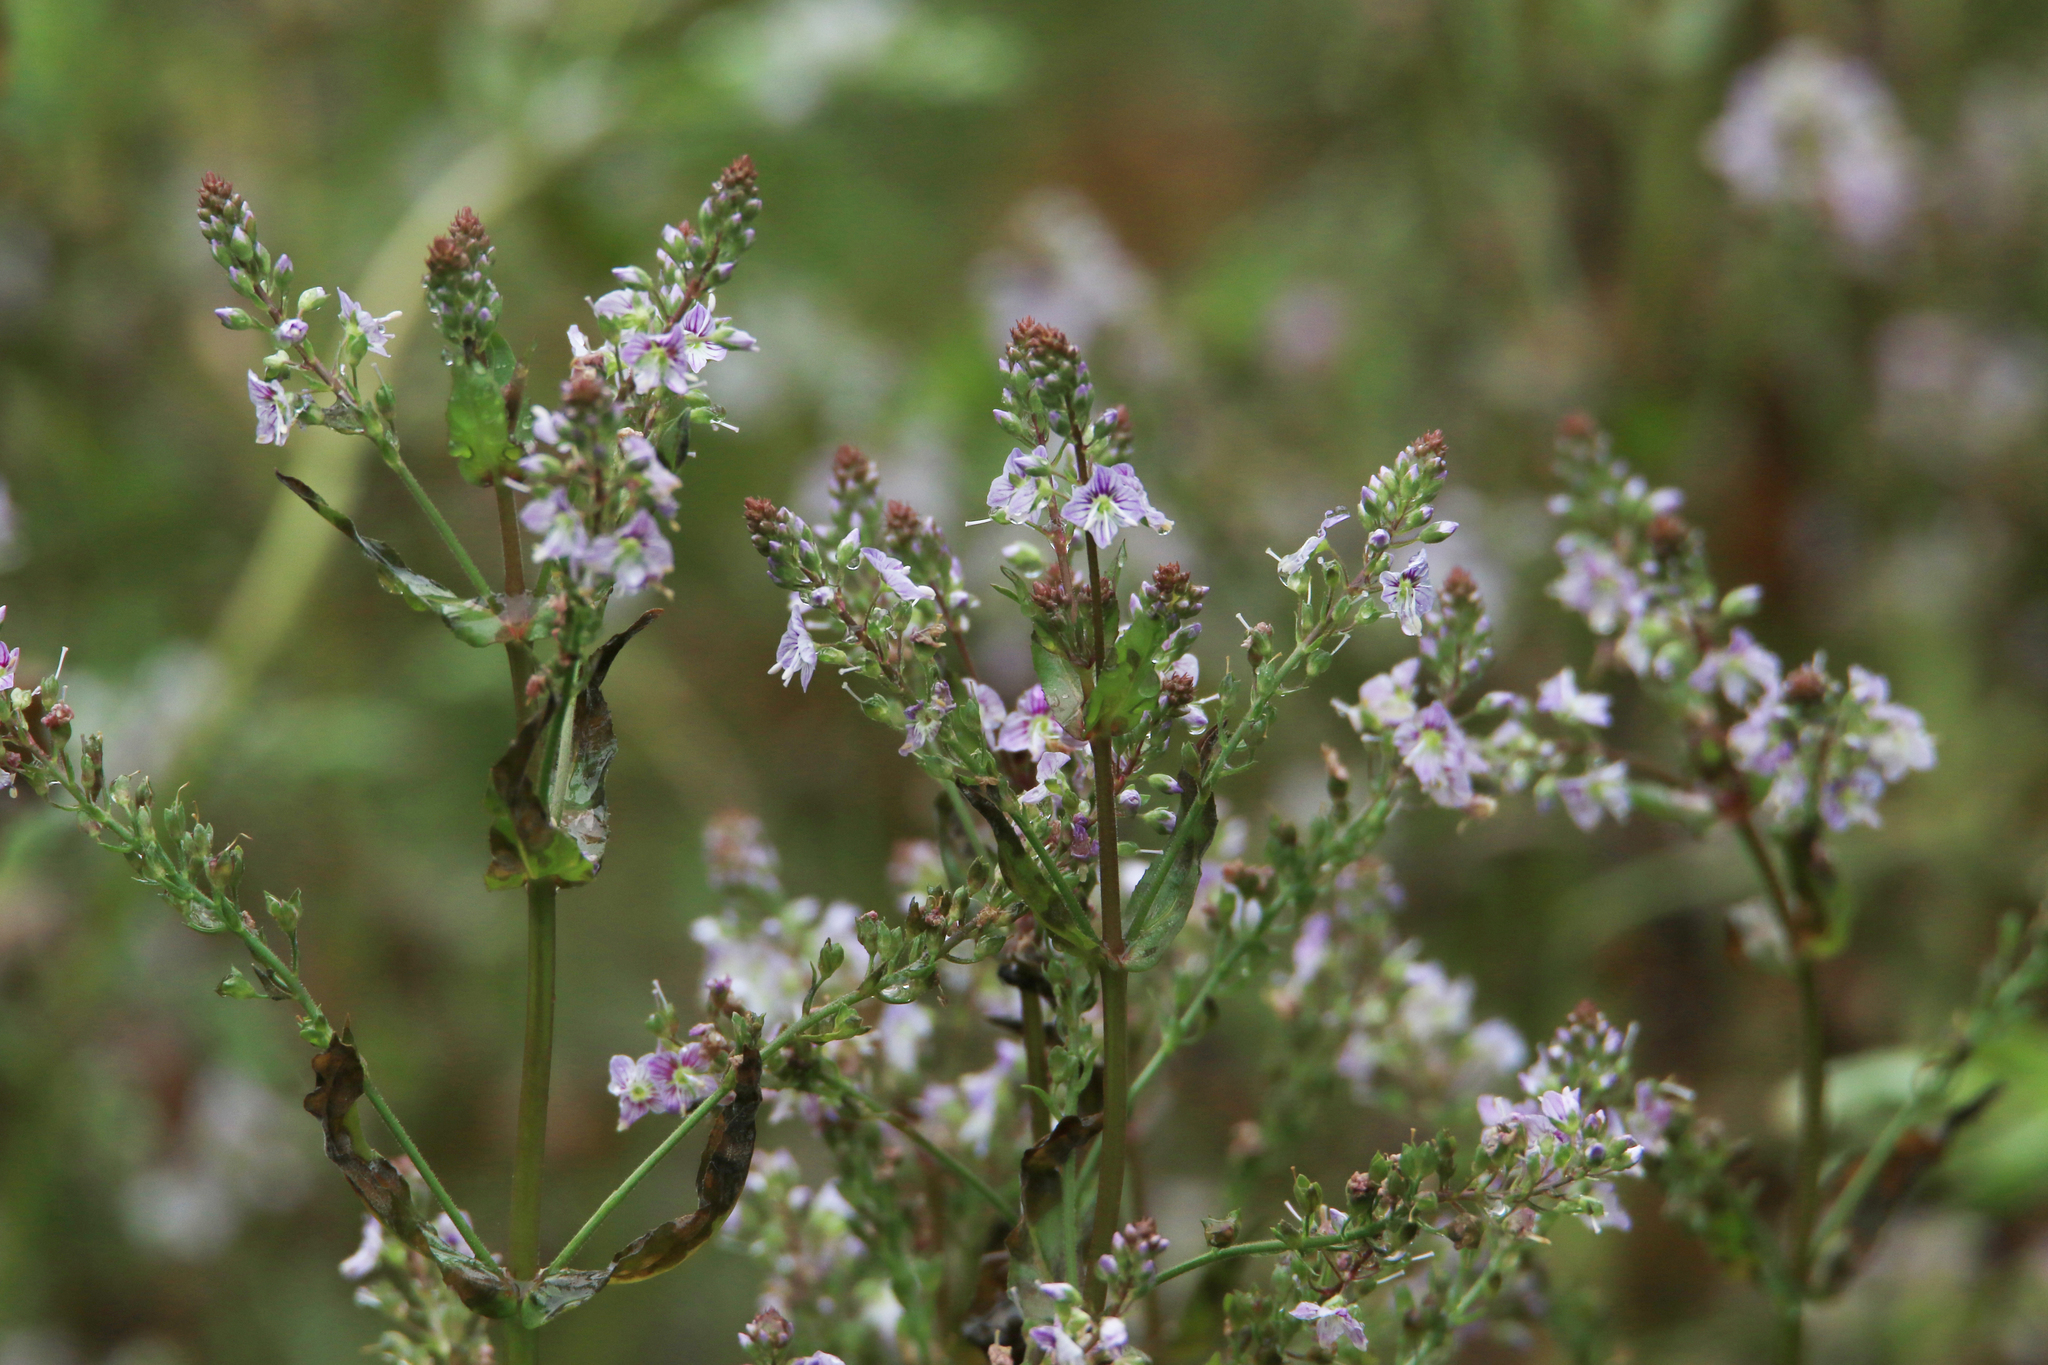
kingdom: Plantae
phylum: Tracheophyta
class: Magnoliopsida
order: Lamiales
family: Plantaginaceae
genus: Veronica
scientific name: Veronica anagallis-aquatica
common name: Water speedwell
